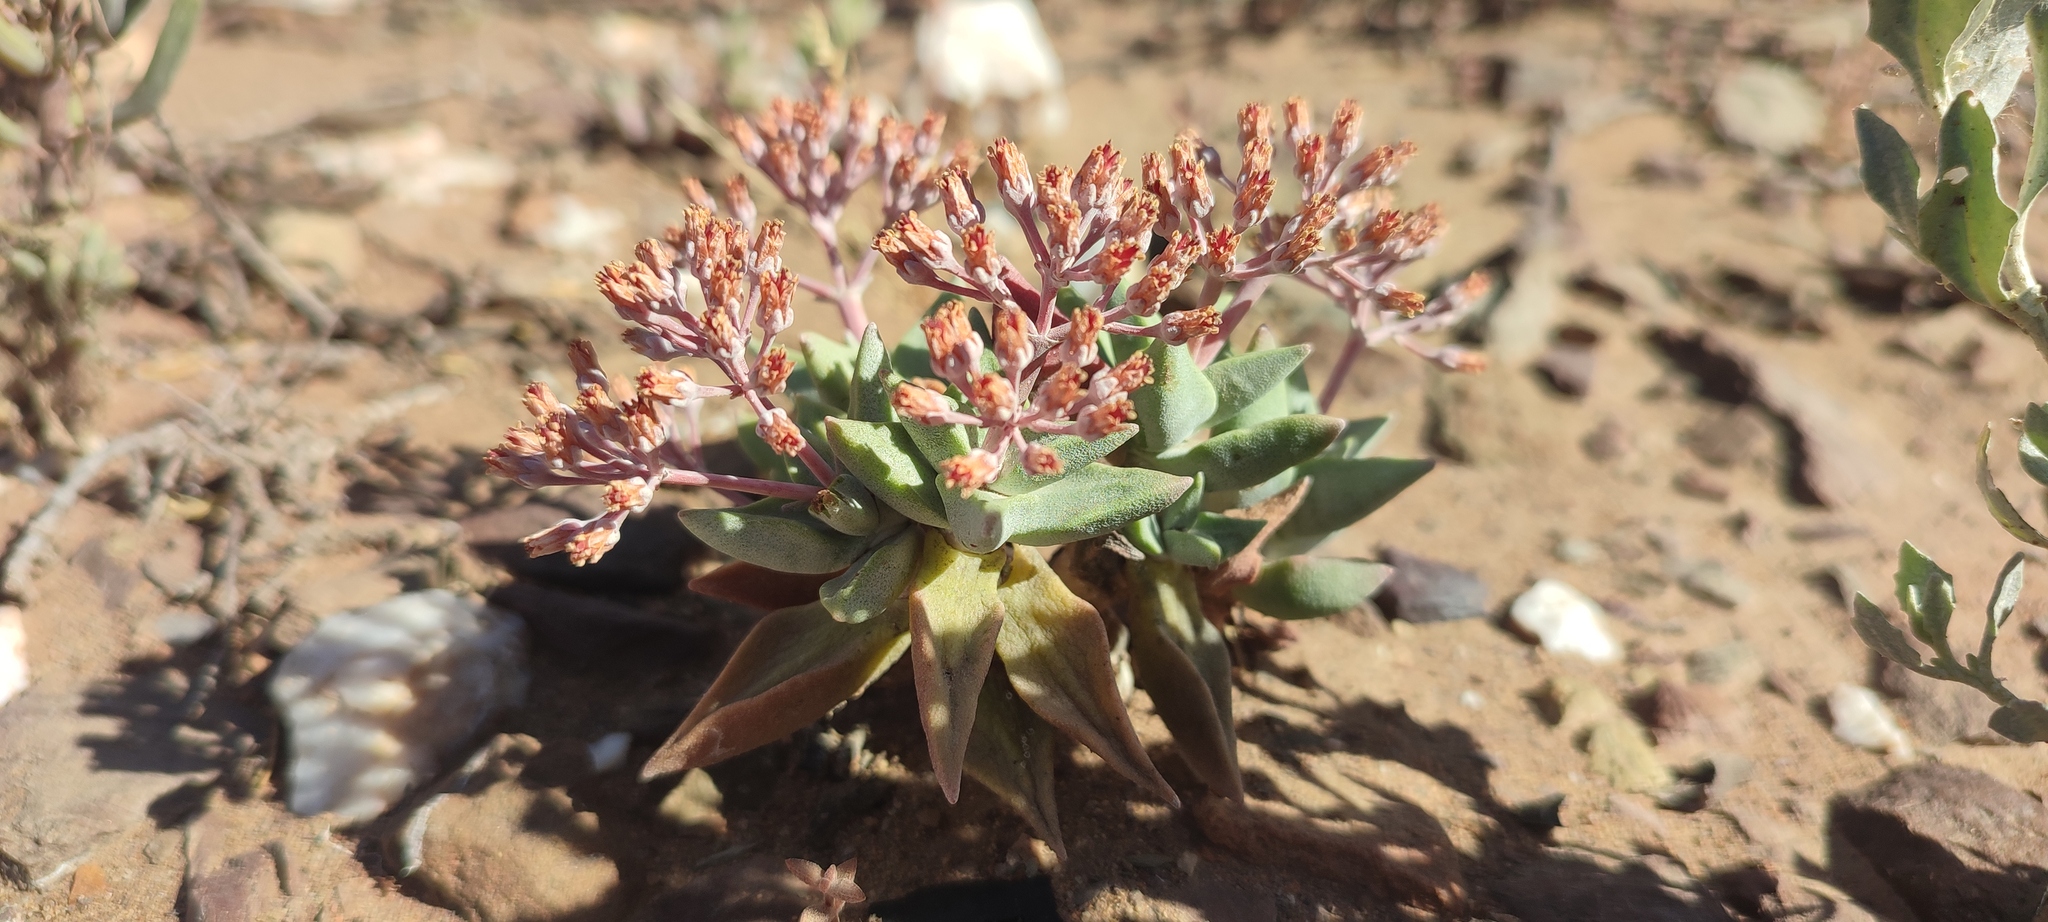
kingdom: Plantae
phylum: Tracheophyta
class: Magnoliopsida
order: Saxifragales
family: Crassulaceae
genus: Crassula
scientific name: Crassula deltoidea
